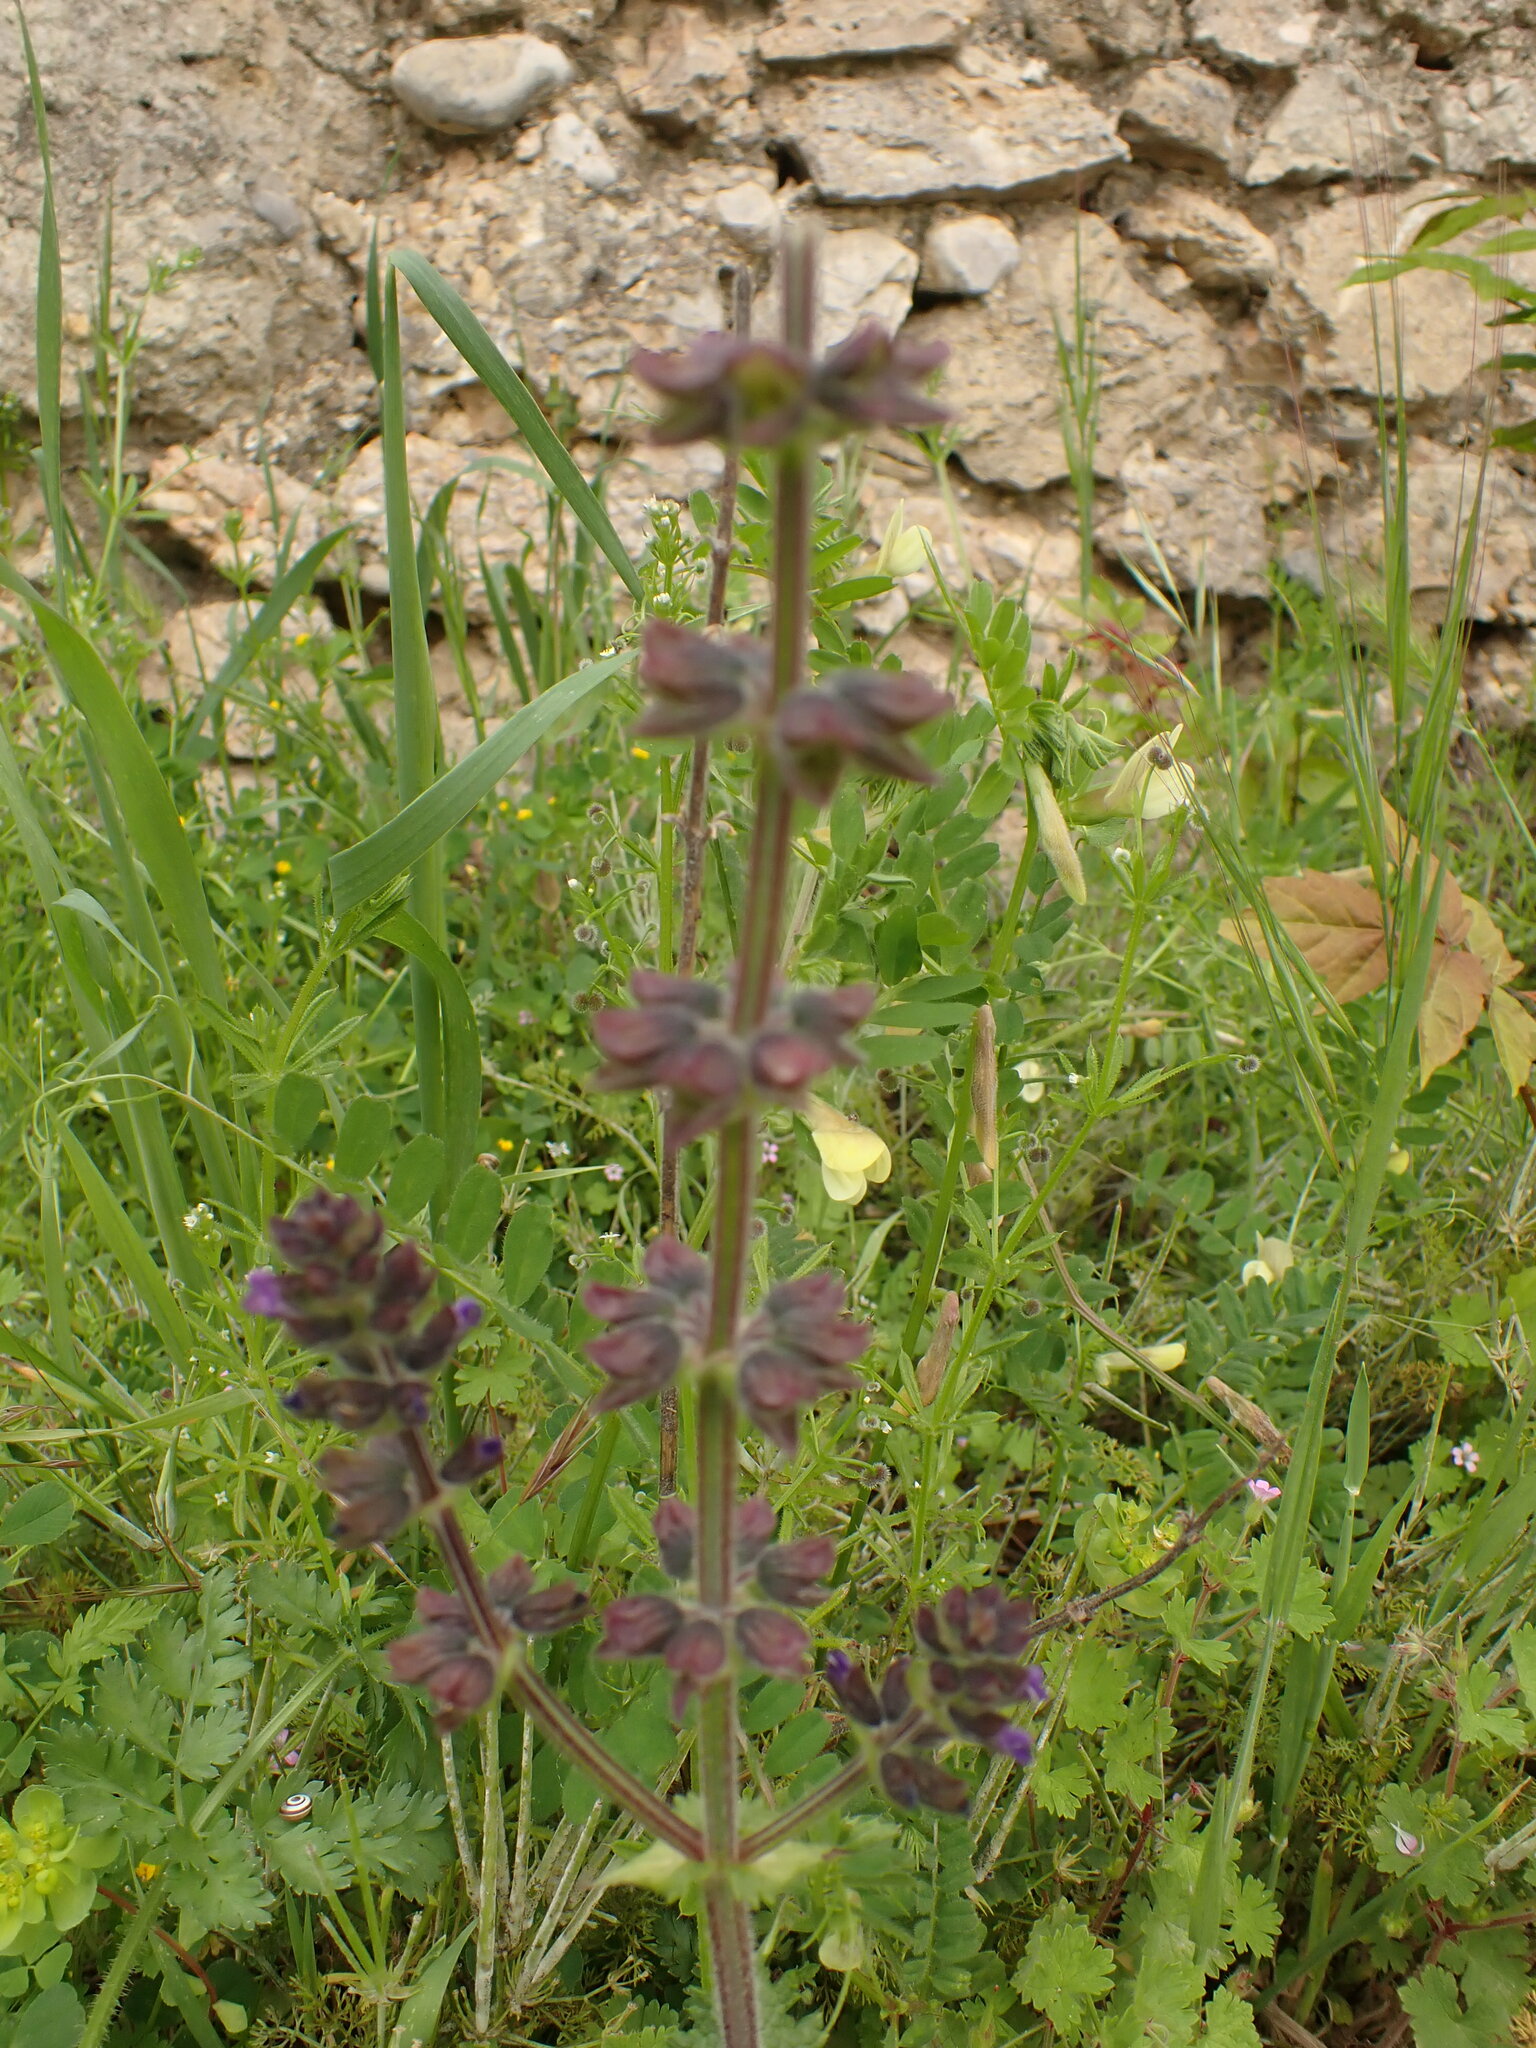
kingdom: Plantae
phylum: Tracheophyta
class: Magnoliopsida
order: Lamiales
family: Lamiaceae
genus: Salvia
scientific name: Salvia verbenaca
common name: Wild clary
